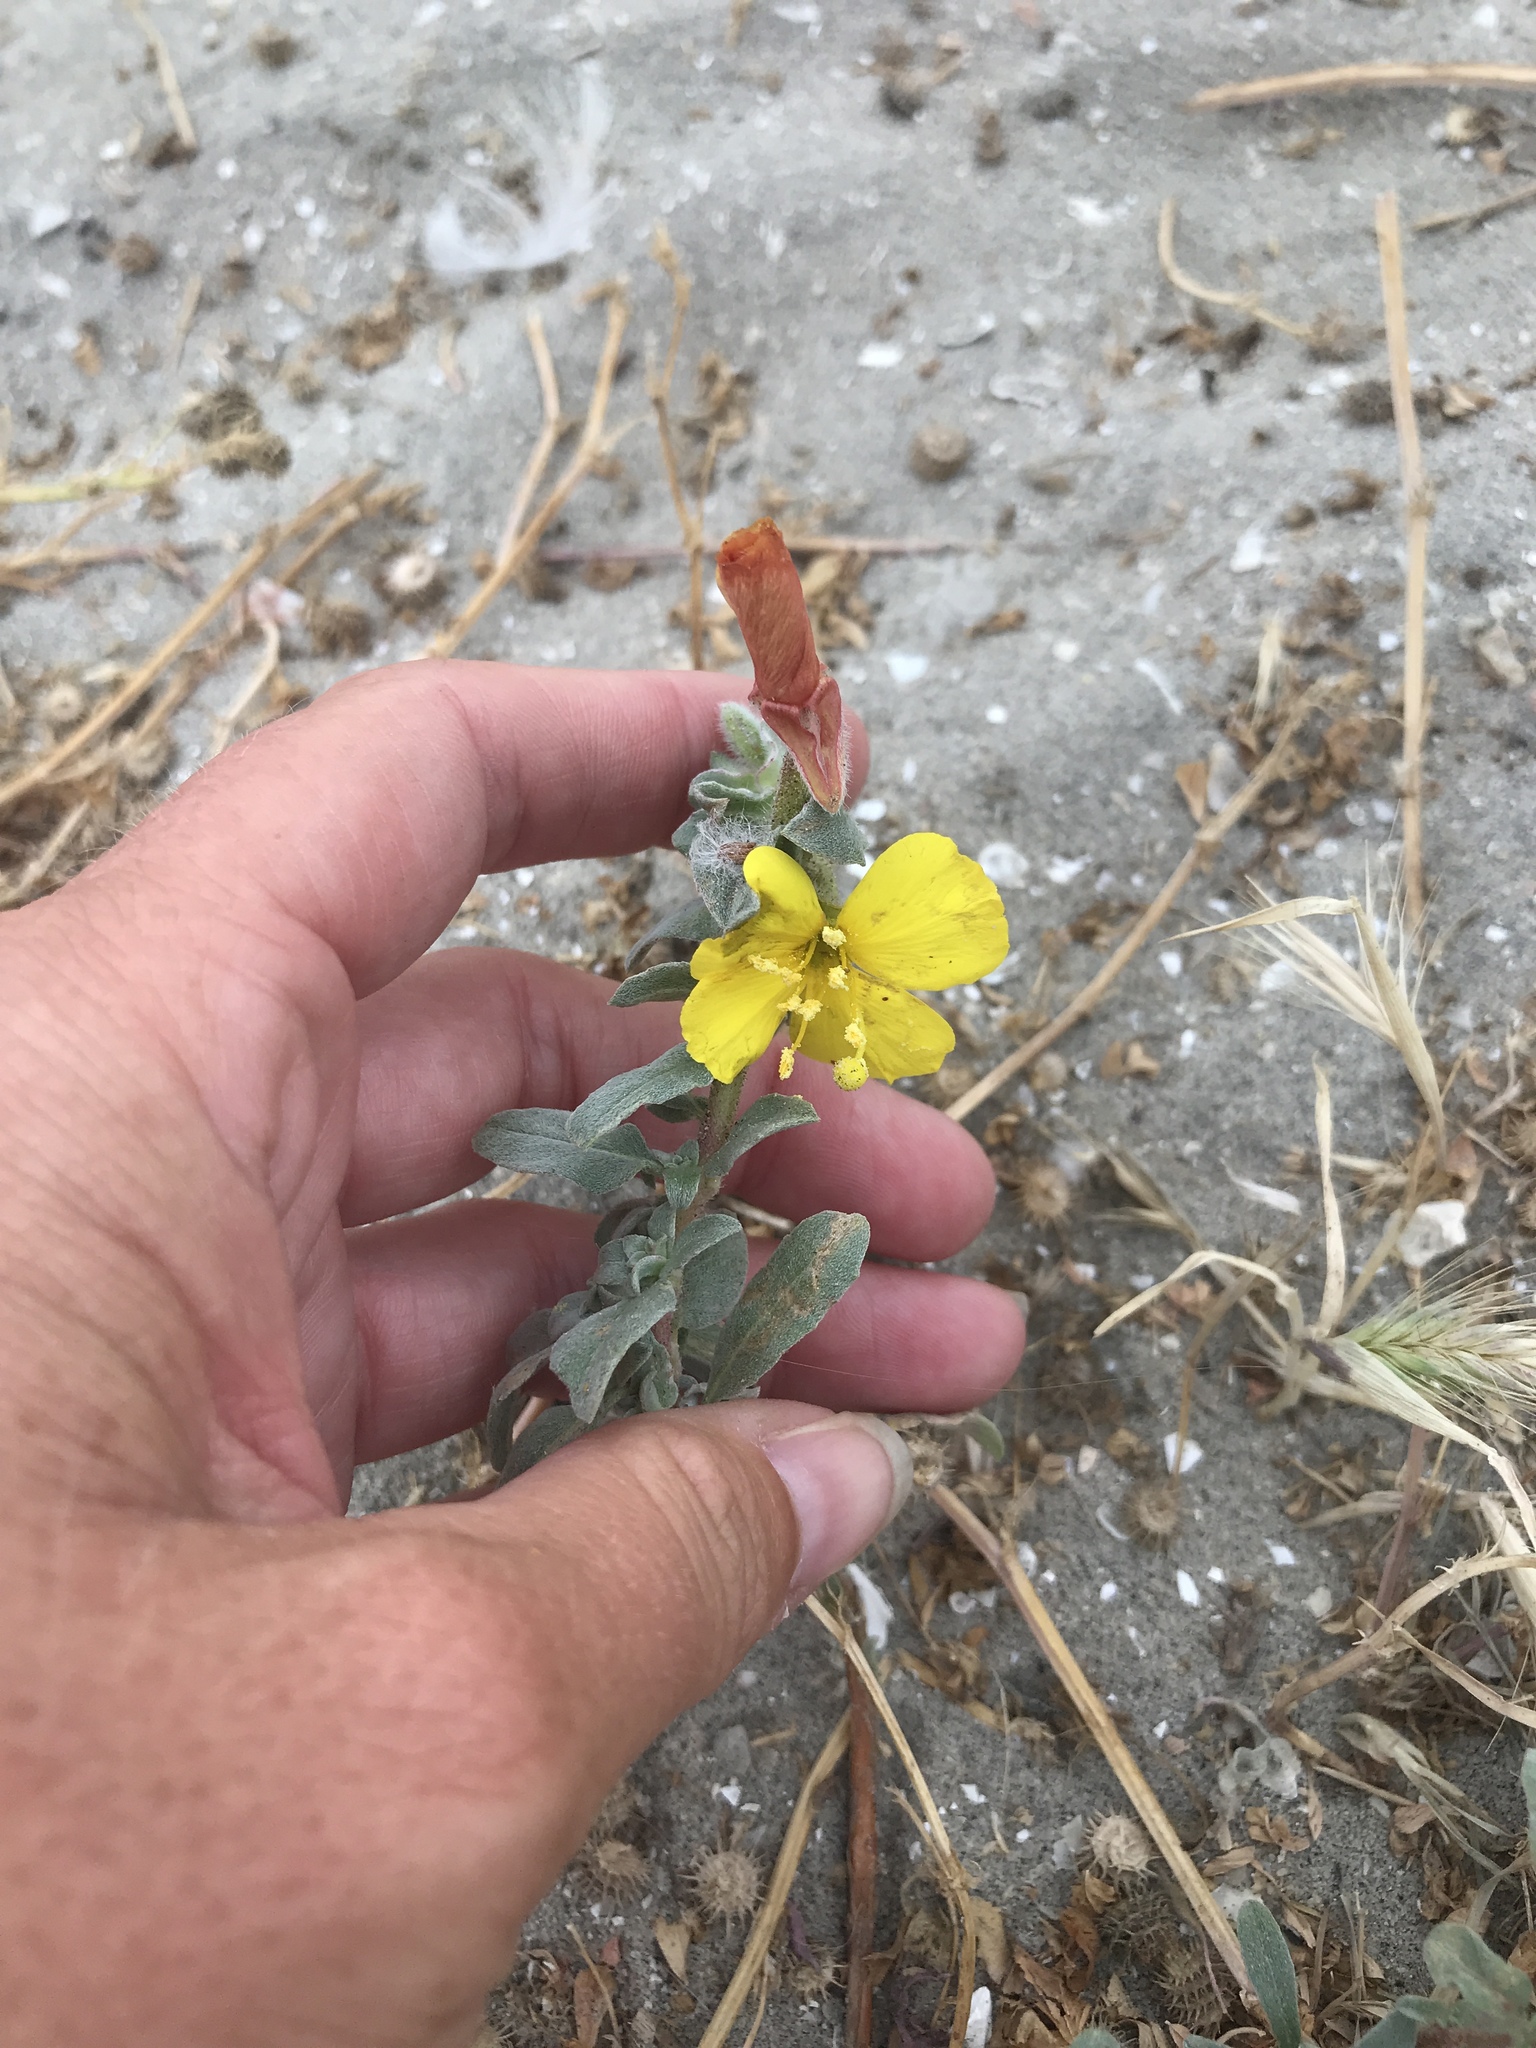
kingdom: Plantae
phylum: Tracheophyta
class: Magnoliopsida
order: Myrtales
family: Onagraceae
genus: Camissoniopsis
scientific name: Camissoniopsis cheiranthifolia
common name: Beach suncup
